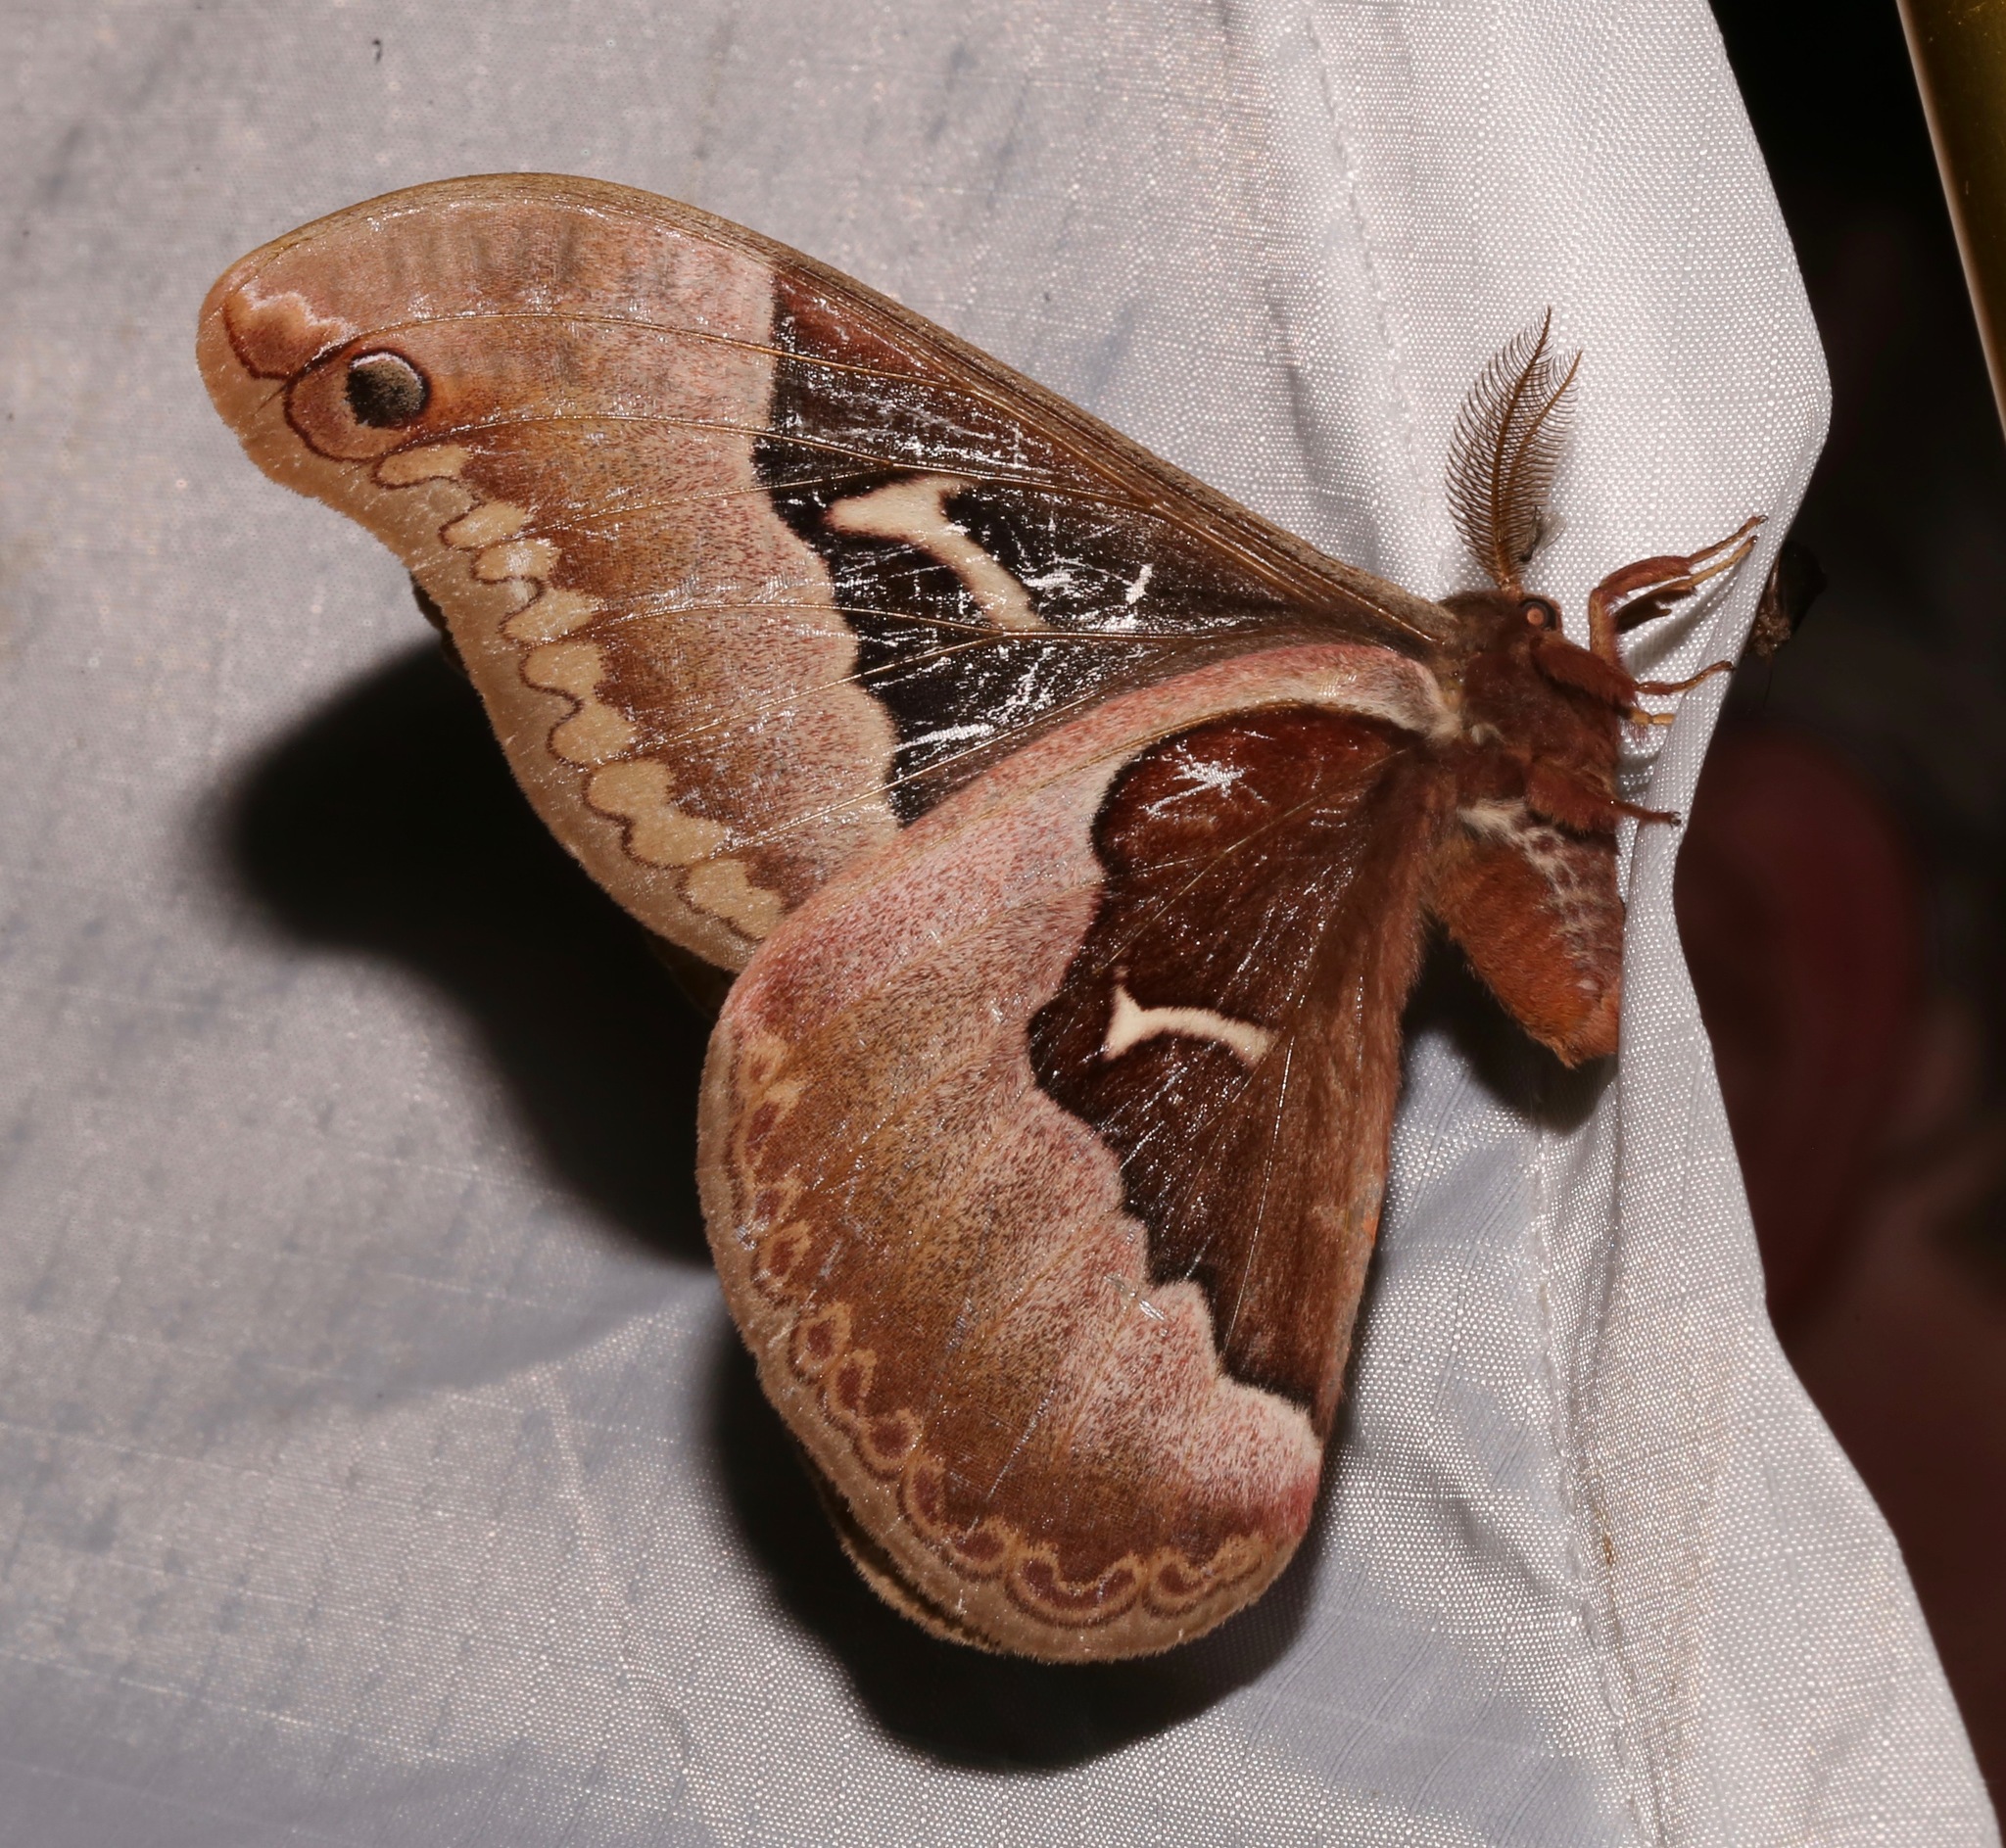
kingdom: Animalia
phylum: Arthropoda
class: Insecta
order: Lepidoptera
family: Saturniidae
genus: Callosamia
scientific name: Callosamia angulifera
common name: Tulip tree silkmoth
